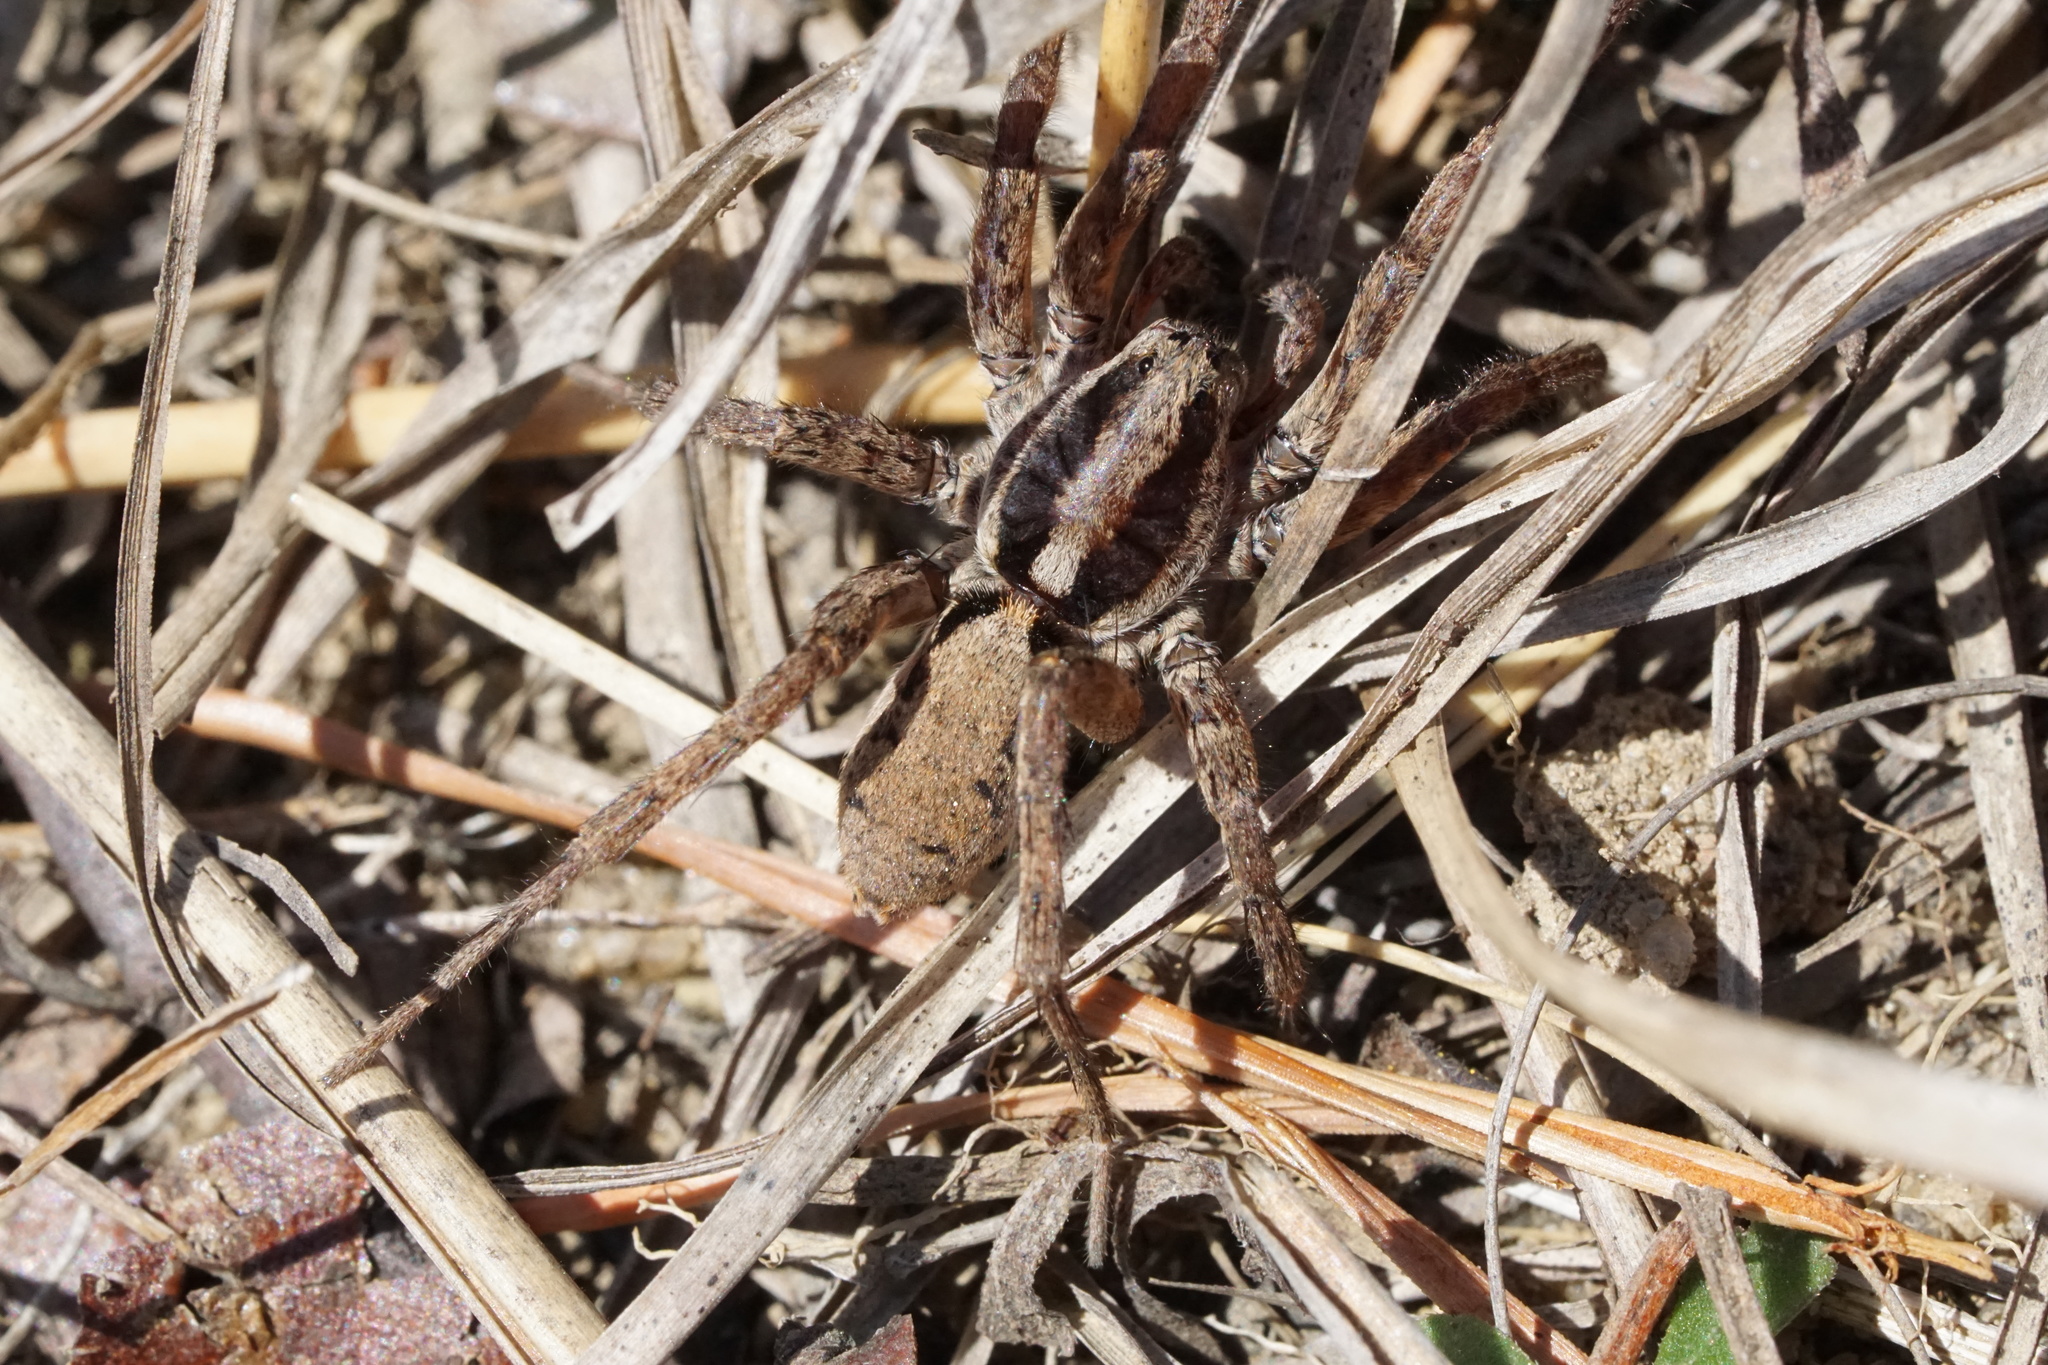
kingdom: Animalia
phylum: Arthropoda
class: Arachnida
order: Araneae
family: Lycosidae
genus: Gladicosa
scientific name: Gladicosa gulosa
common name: Drumming sword wolf spider
